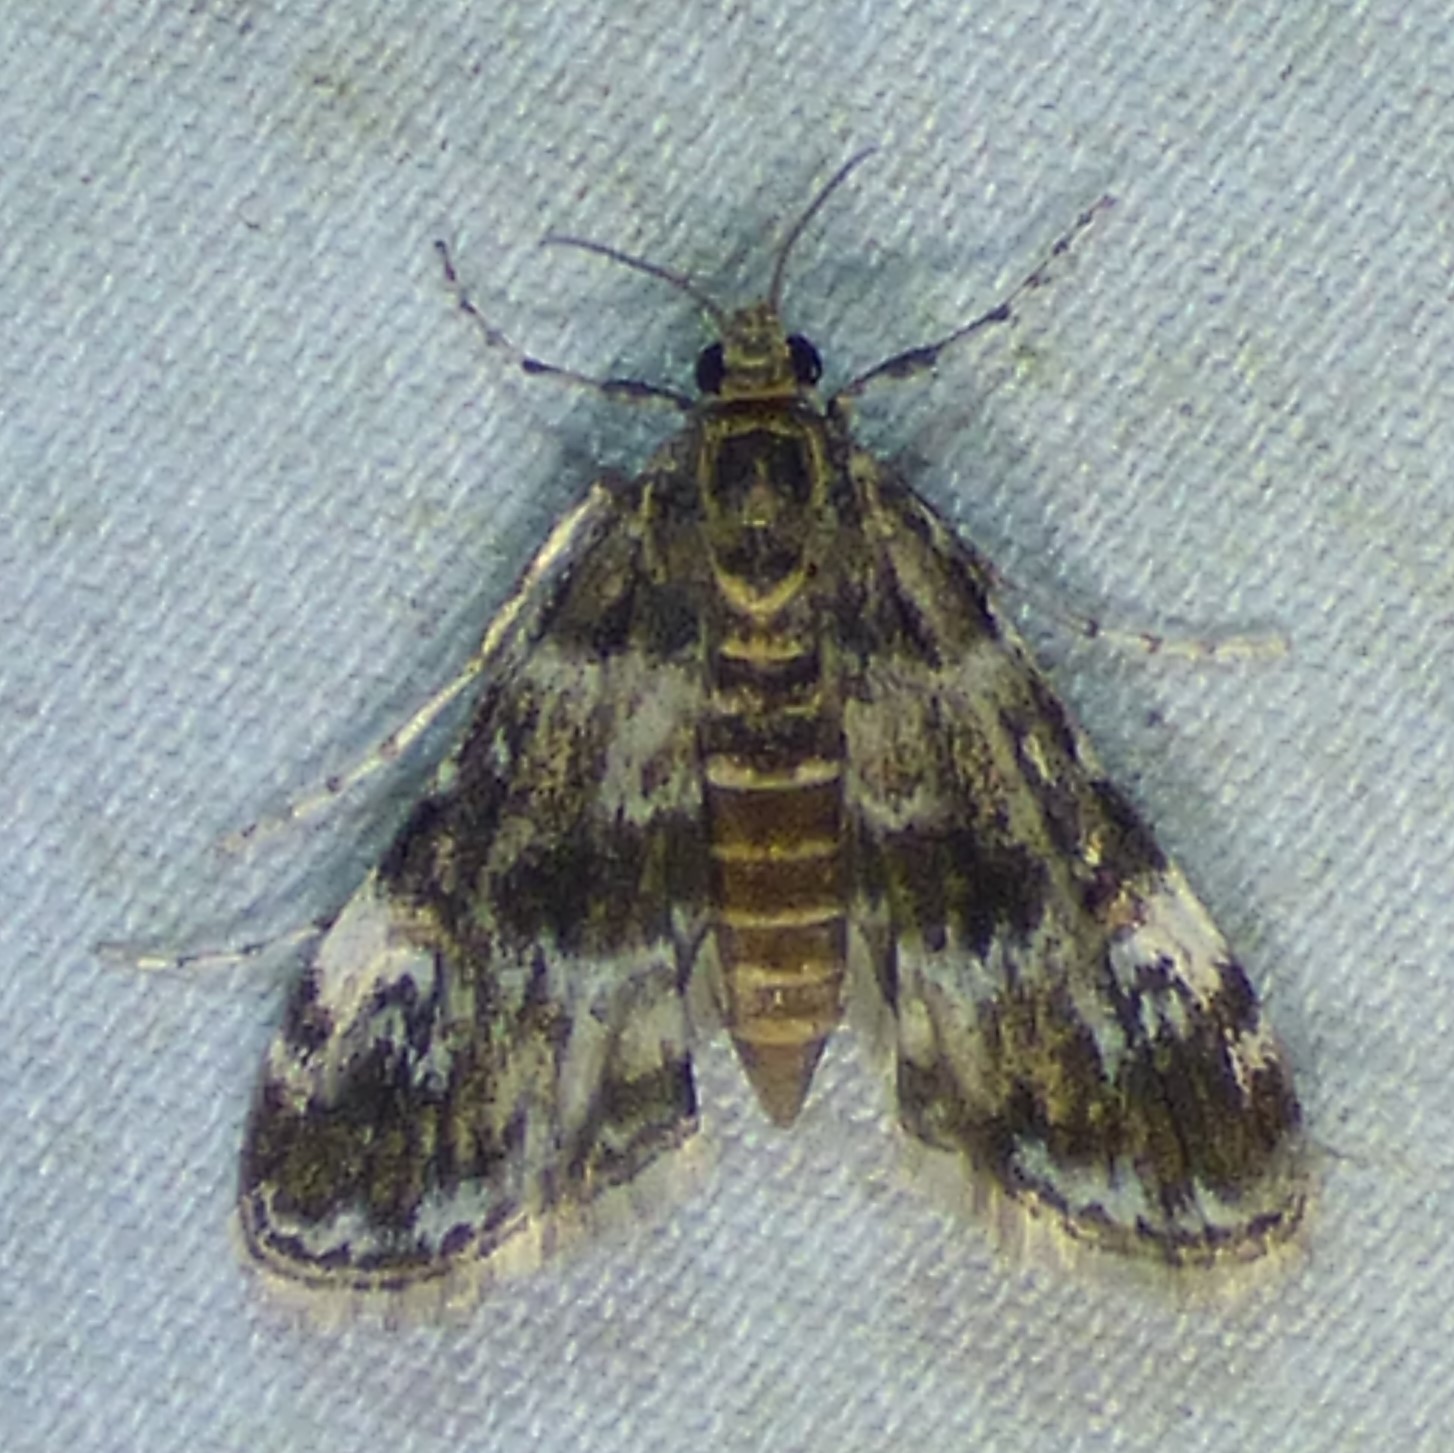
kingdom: Animalia
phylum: Arthropoda
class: Insecta
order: Lepidoptera
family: Crambidae
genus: Elophila
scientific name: Elophila obliteralis
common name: Waterlily leafcutter moth
